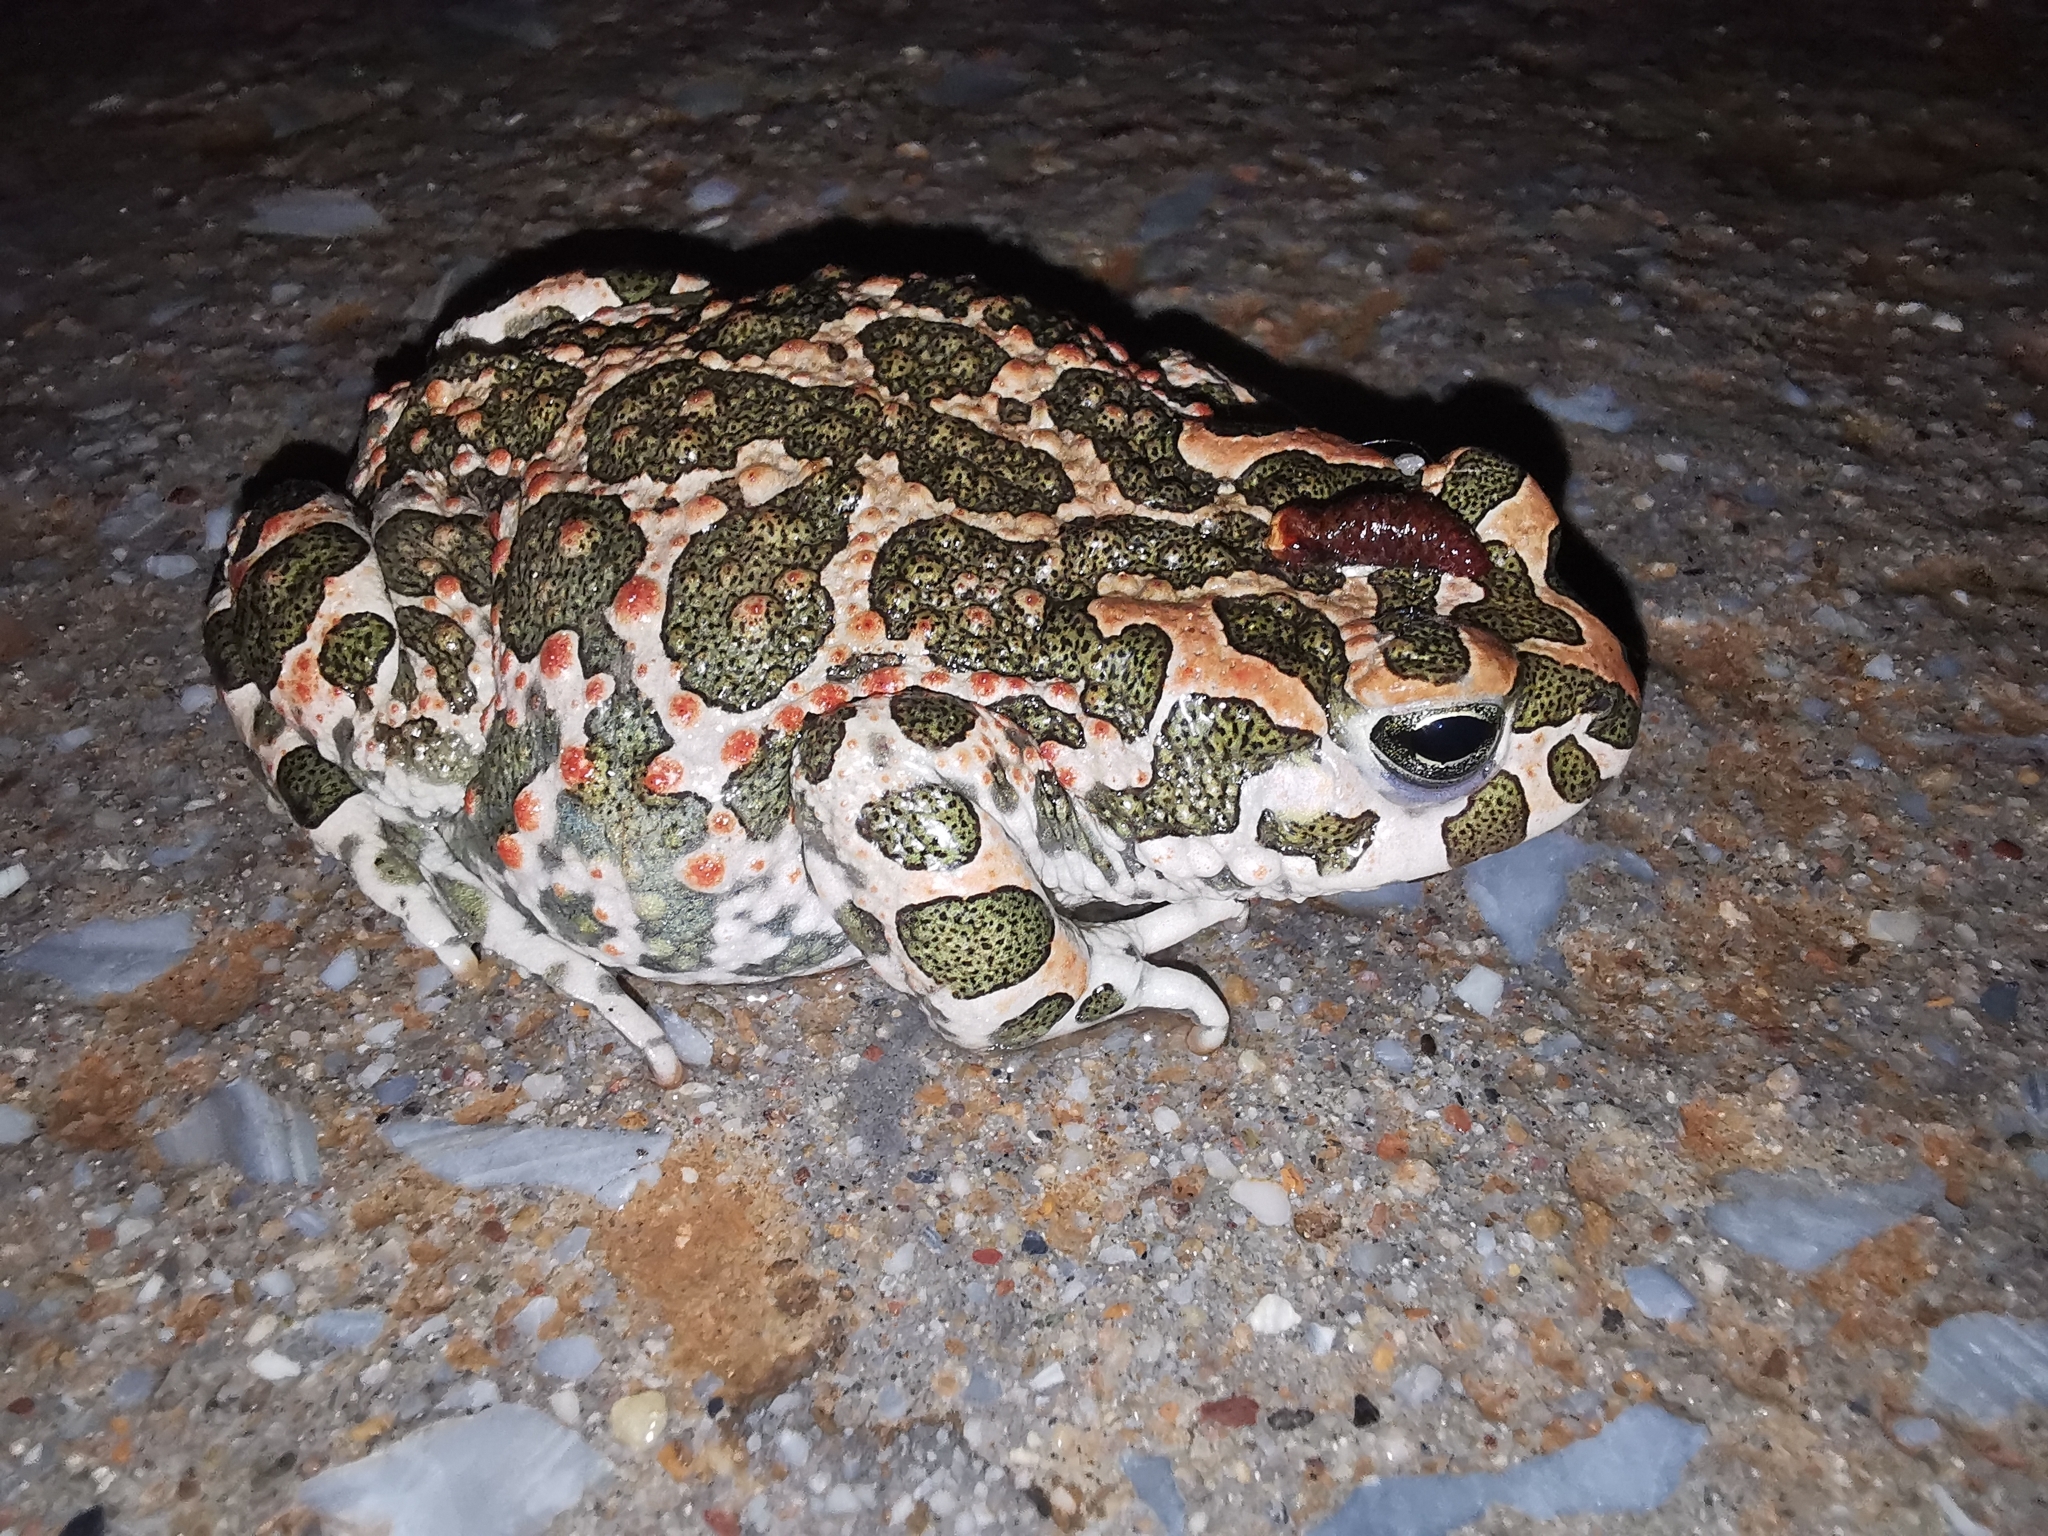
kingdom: Animalia
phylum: Chordata
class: Amphibia
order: Anura
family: Bufonidae
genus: Bufotes
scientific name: Bufotes viridis
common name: European green toad
